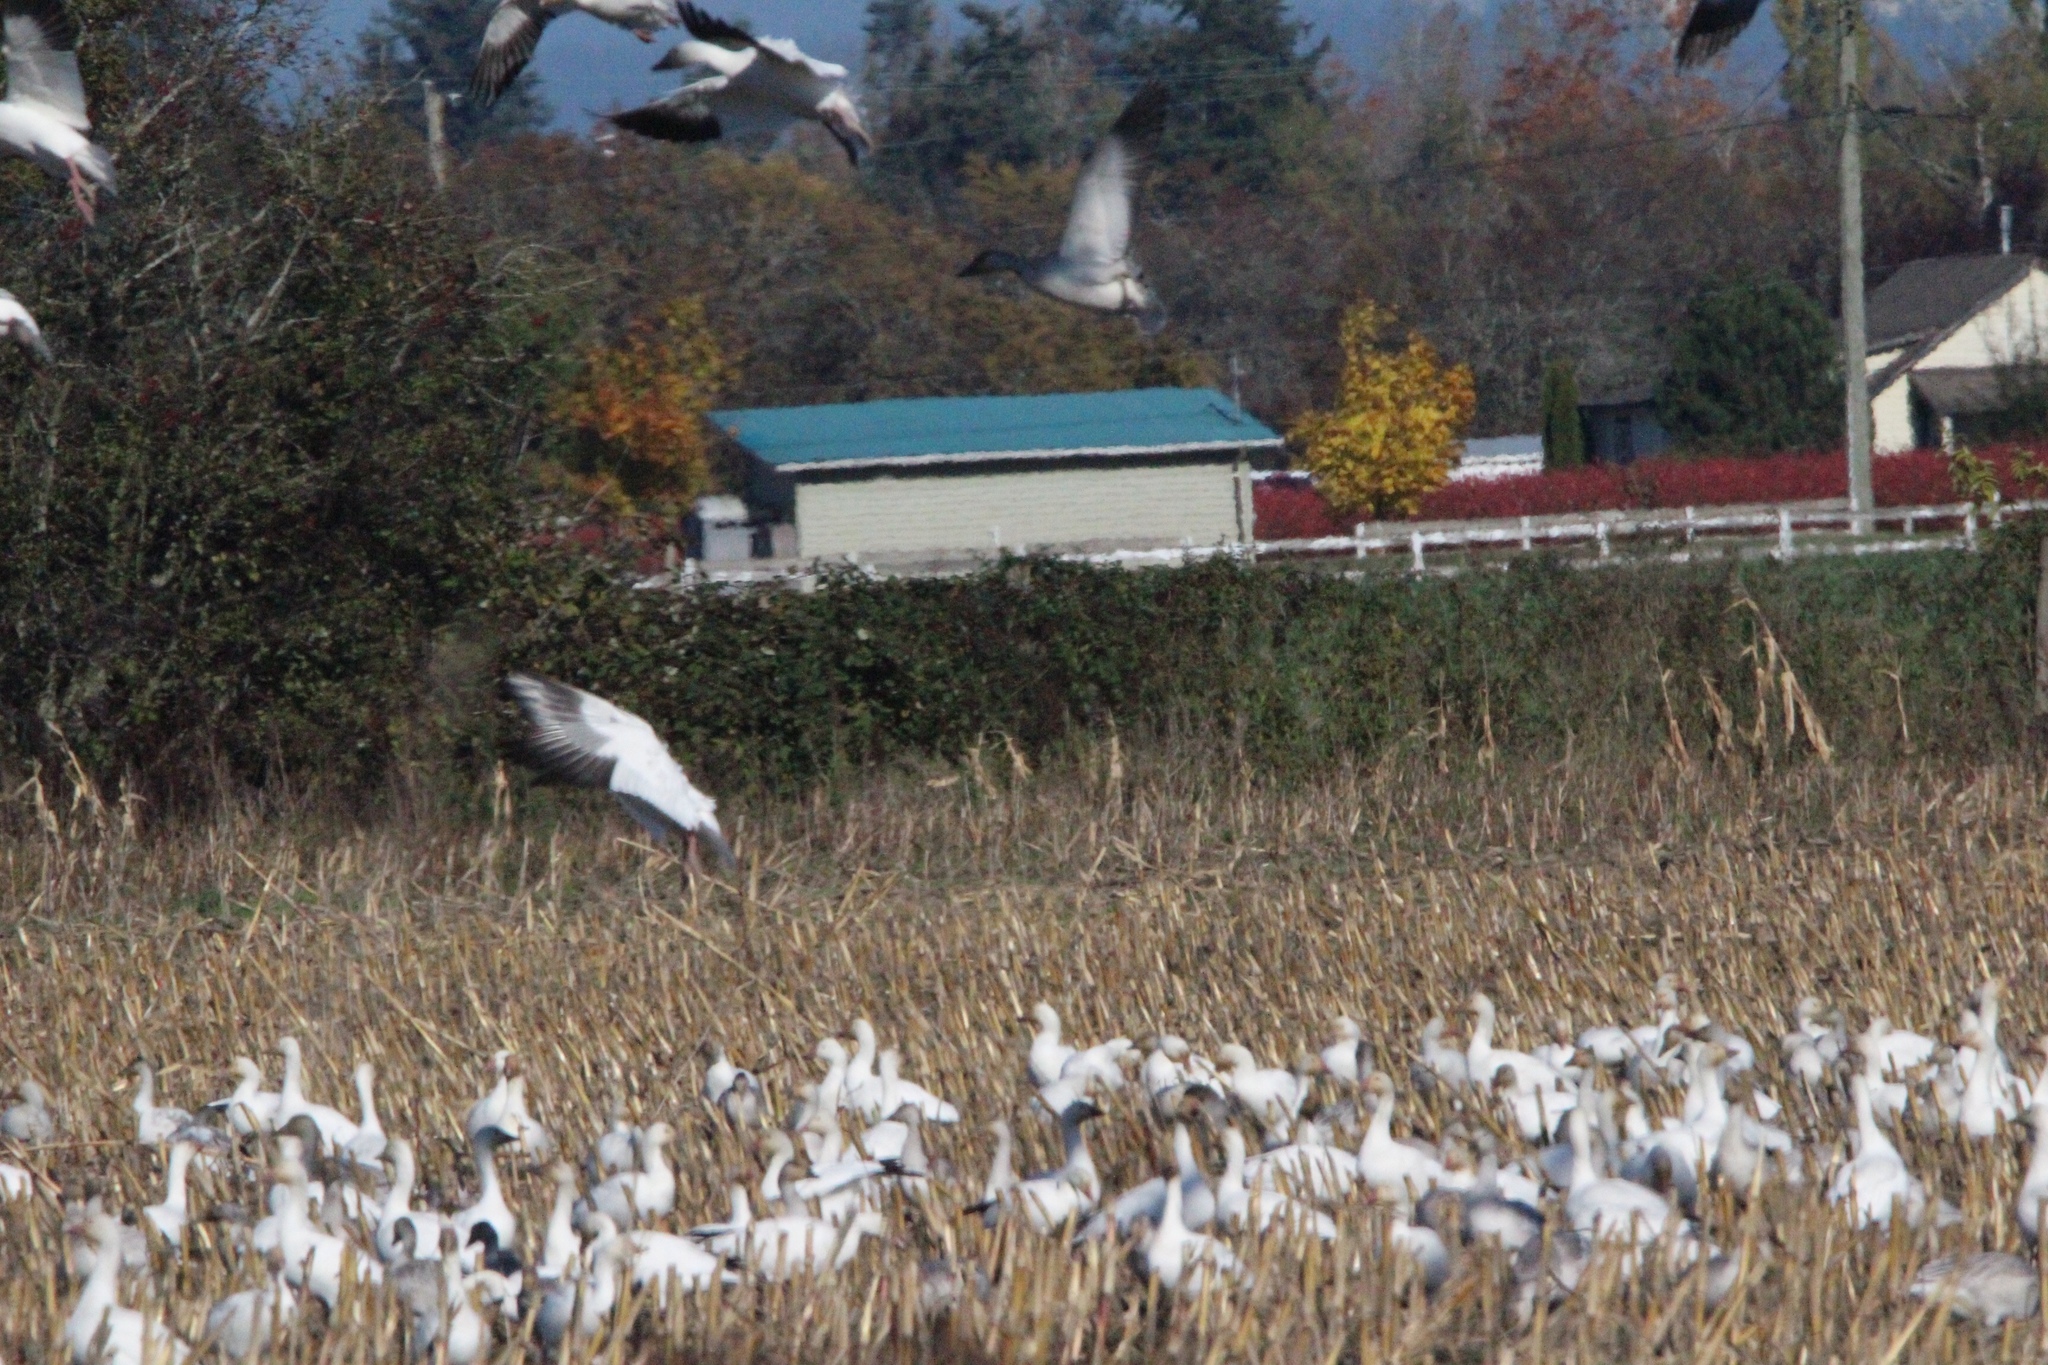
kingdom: Animalia
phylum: Chordata
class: Aves
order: Anseriformes
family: Anatidae
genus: Anser
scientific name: Anser caerulescens
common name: Snow goose
